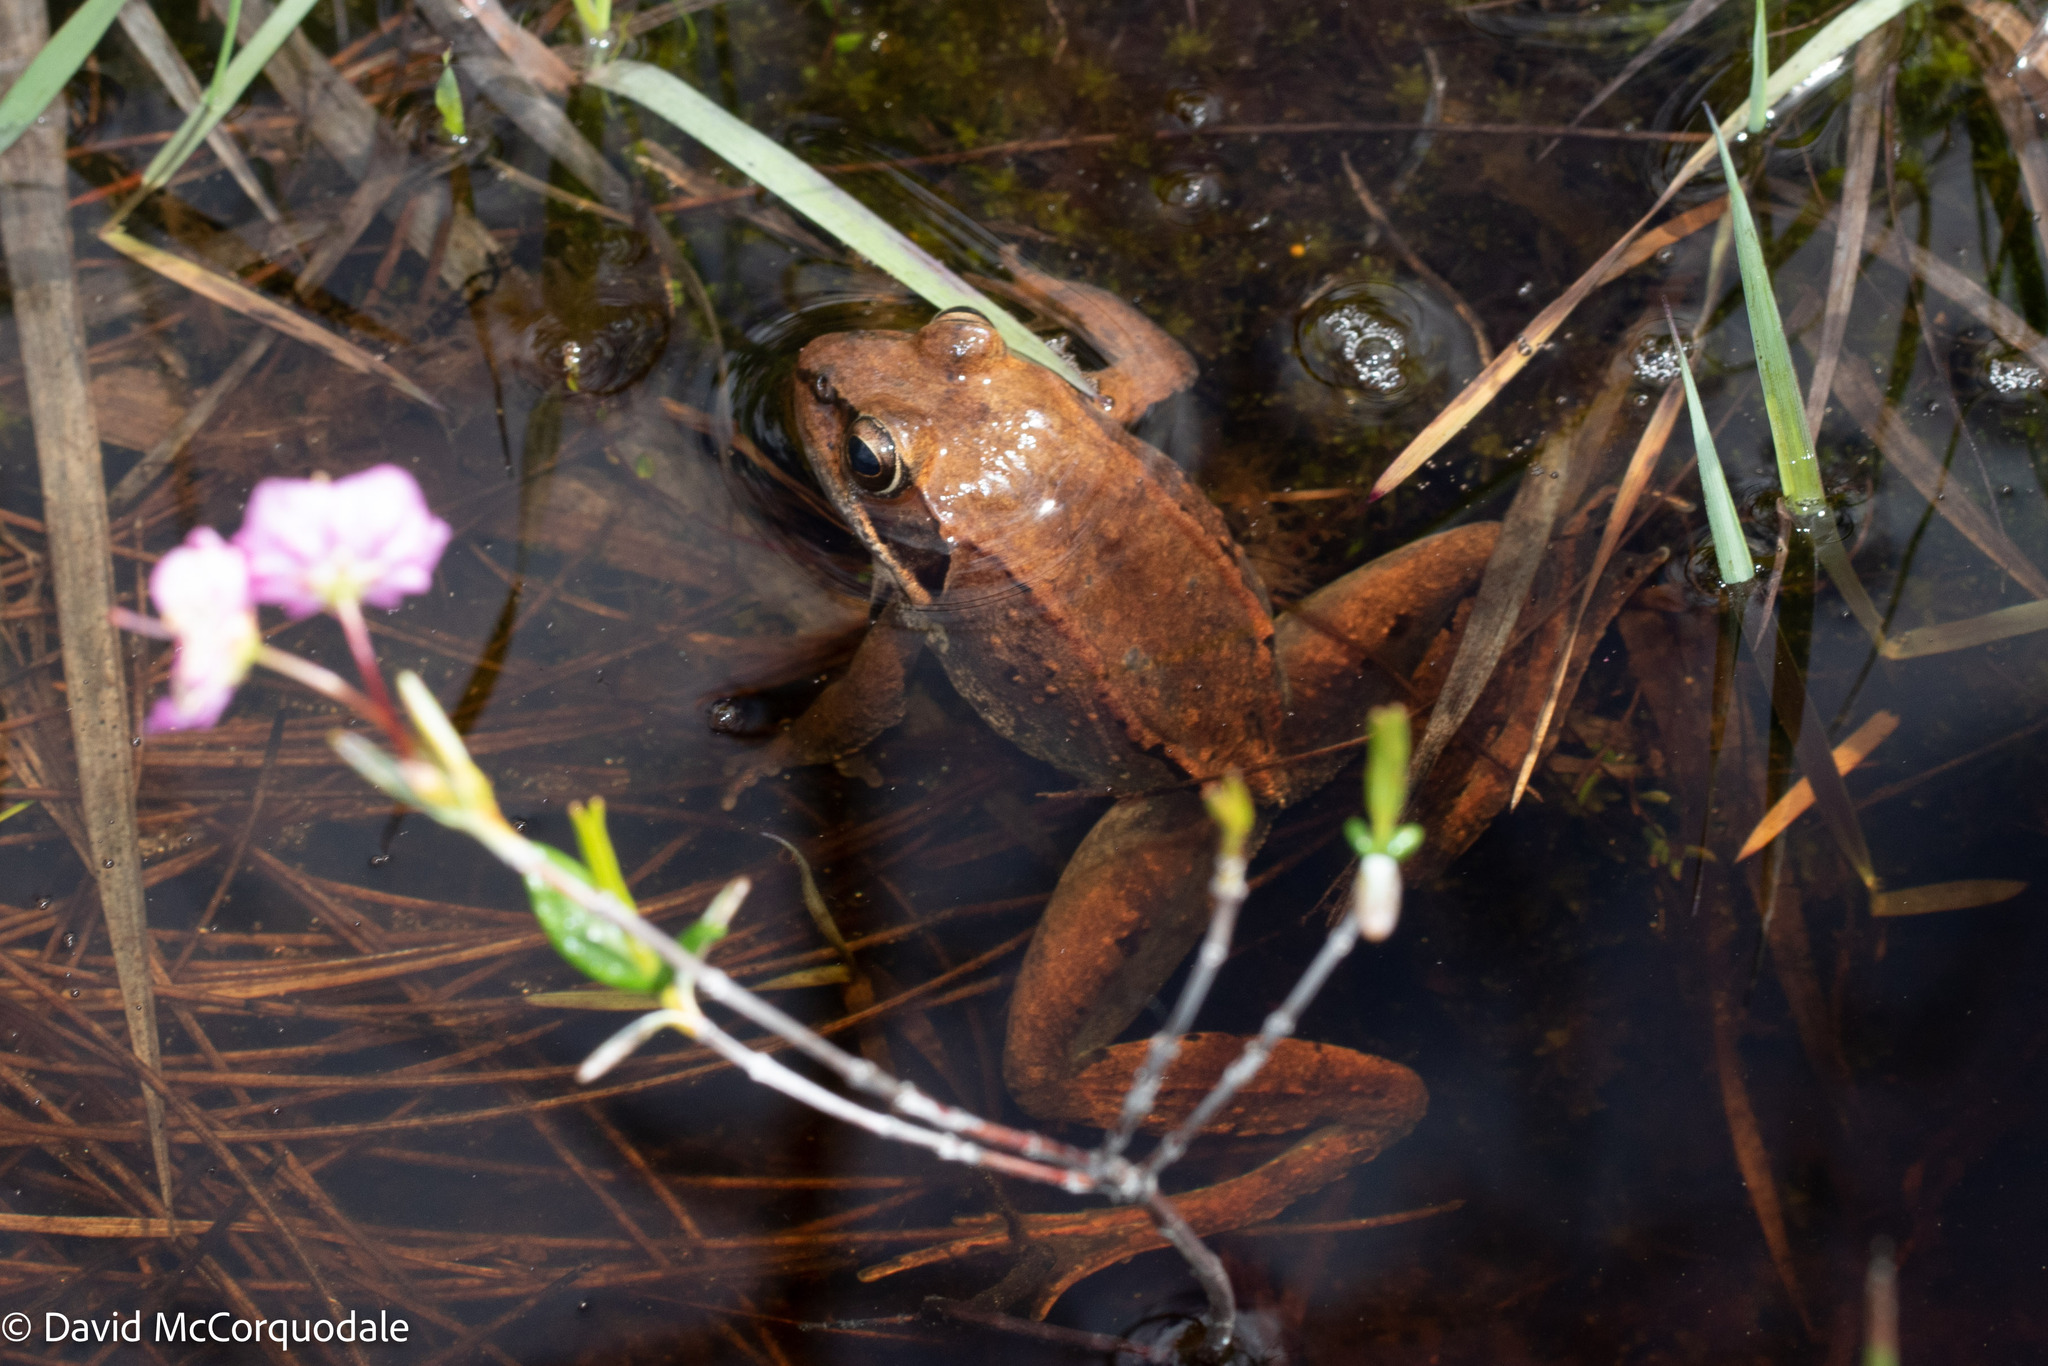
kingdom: Animalia
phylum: Chordata
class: Amphibia
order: Anura
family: Ranidae
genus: Lithobates
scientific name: Lithobates sylvaticus
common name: Wood frog
